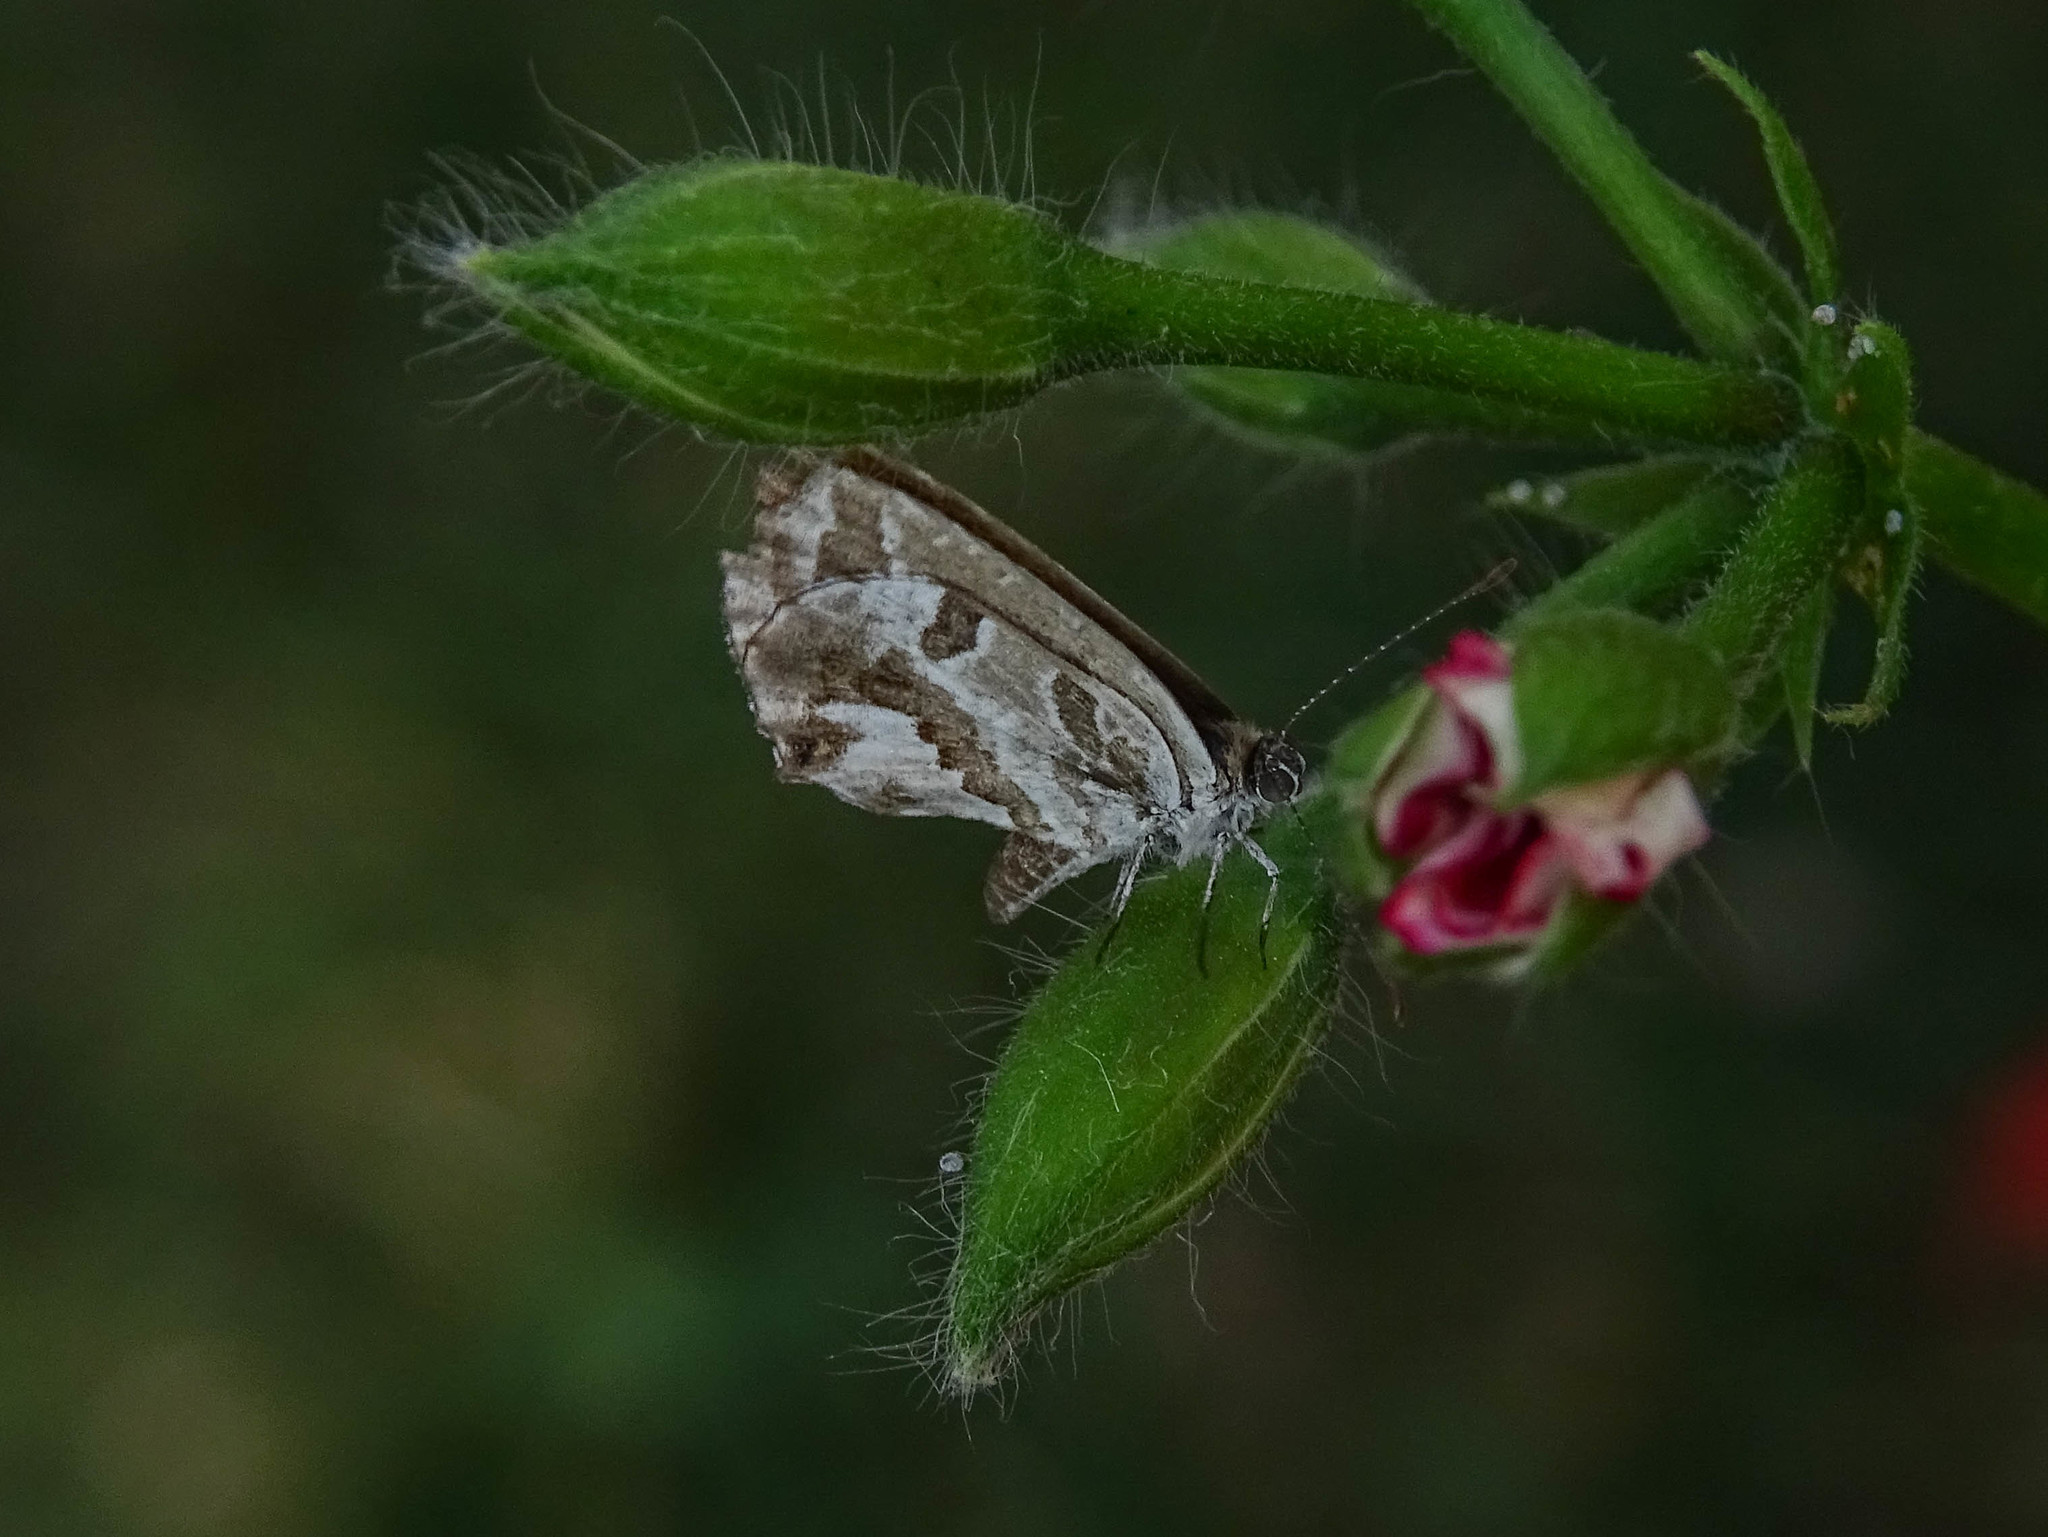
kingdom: Animalia
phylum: Arthropoda
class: Insecta
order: Lepidoptera
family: Lycaenidae
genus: Cacyreus
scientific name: Cacyreus marshalli
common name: Geranium bronze
